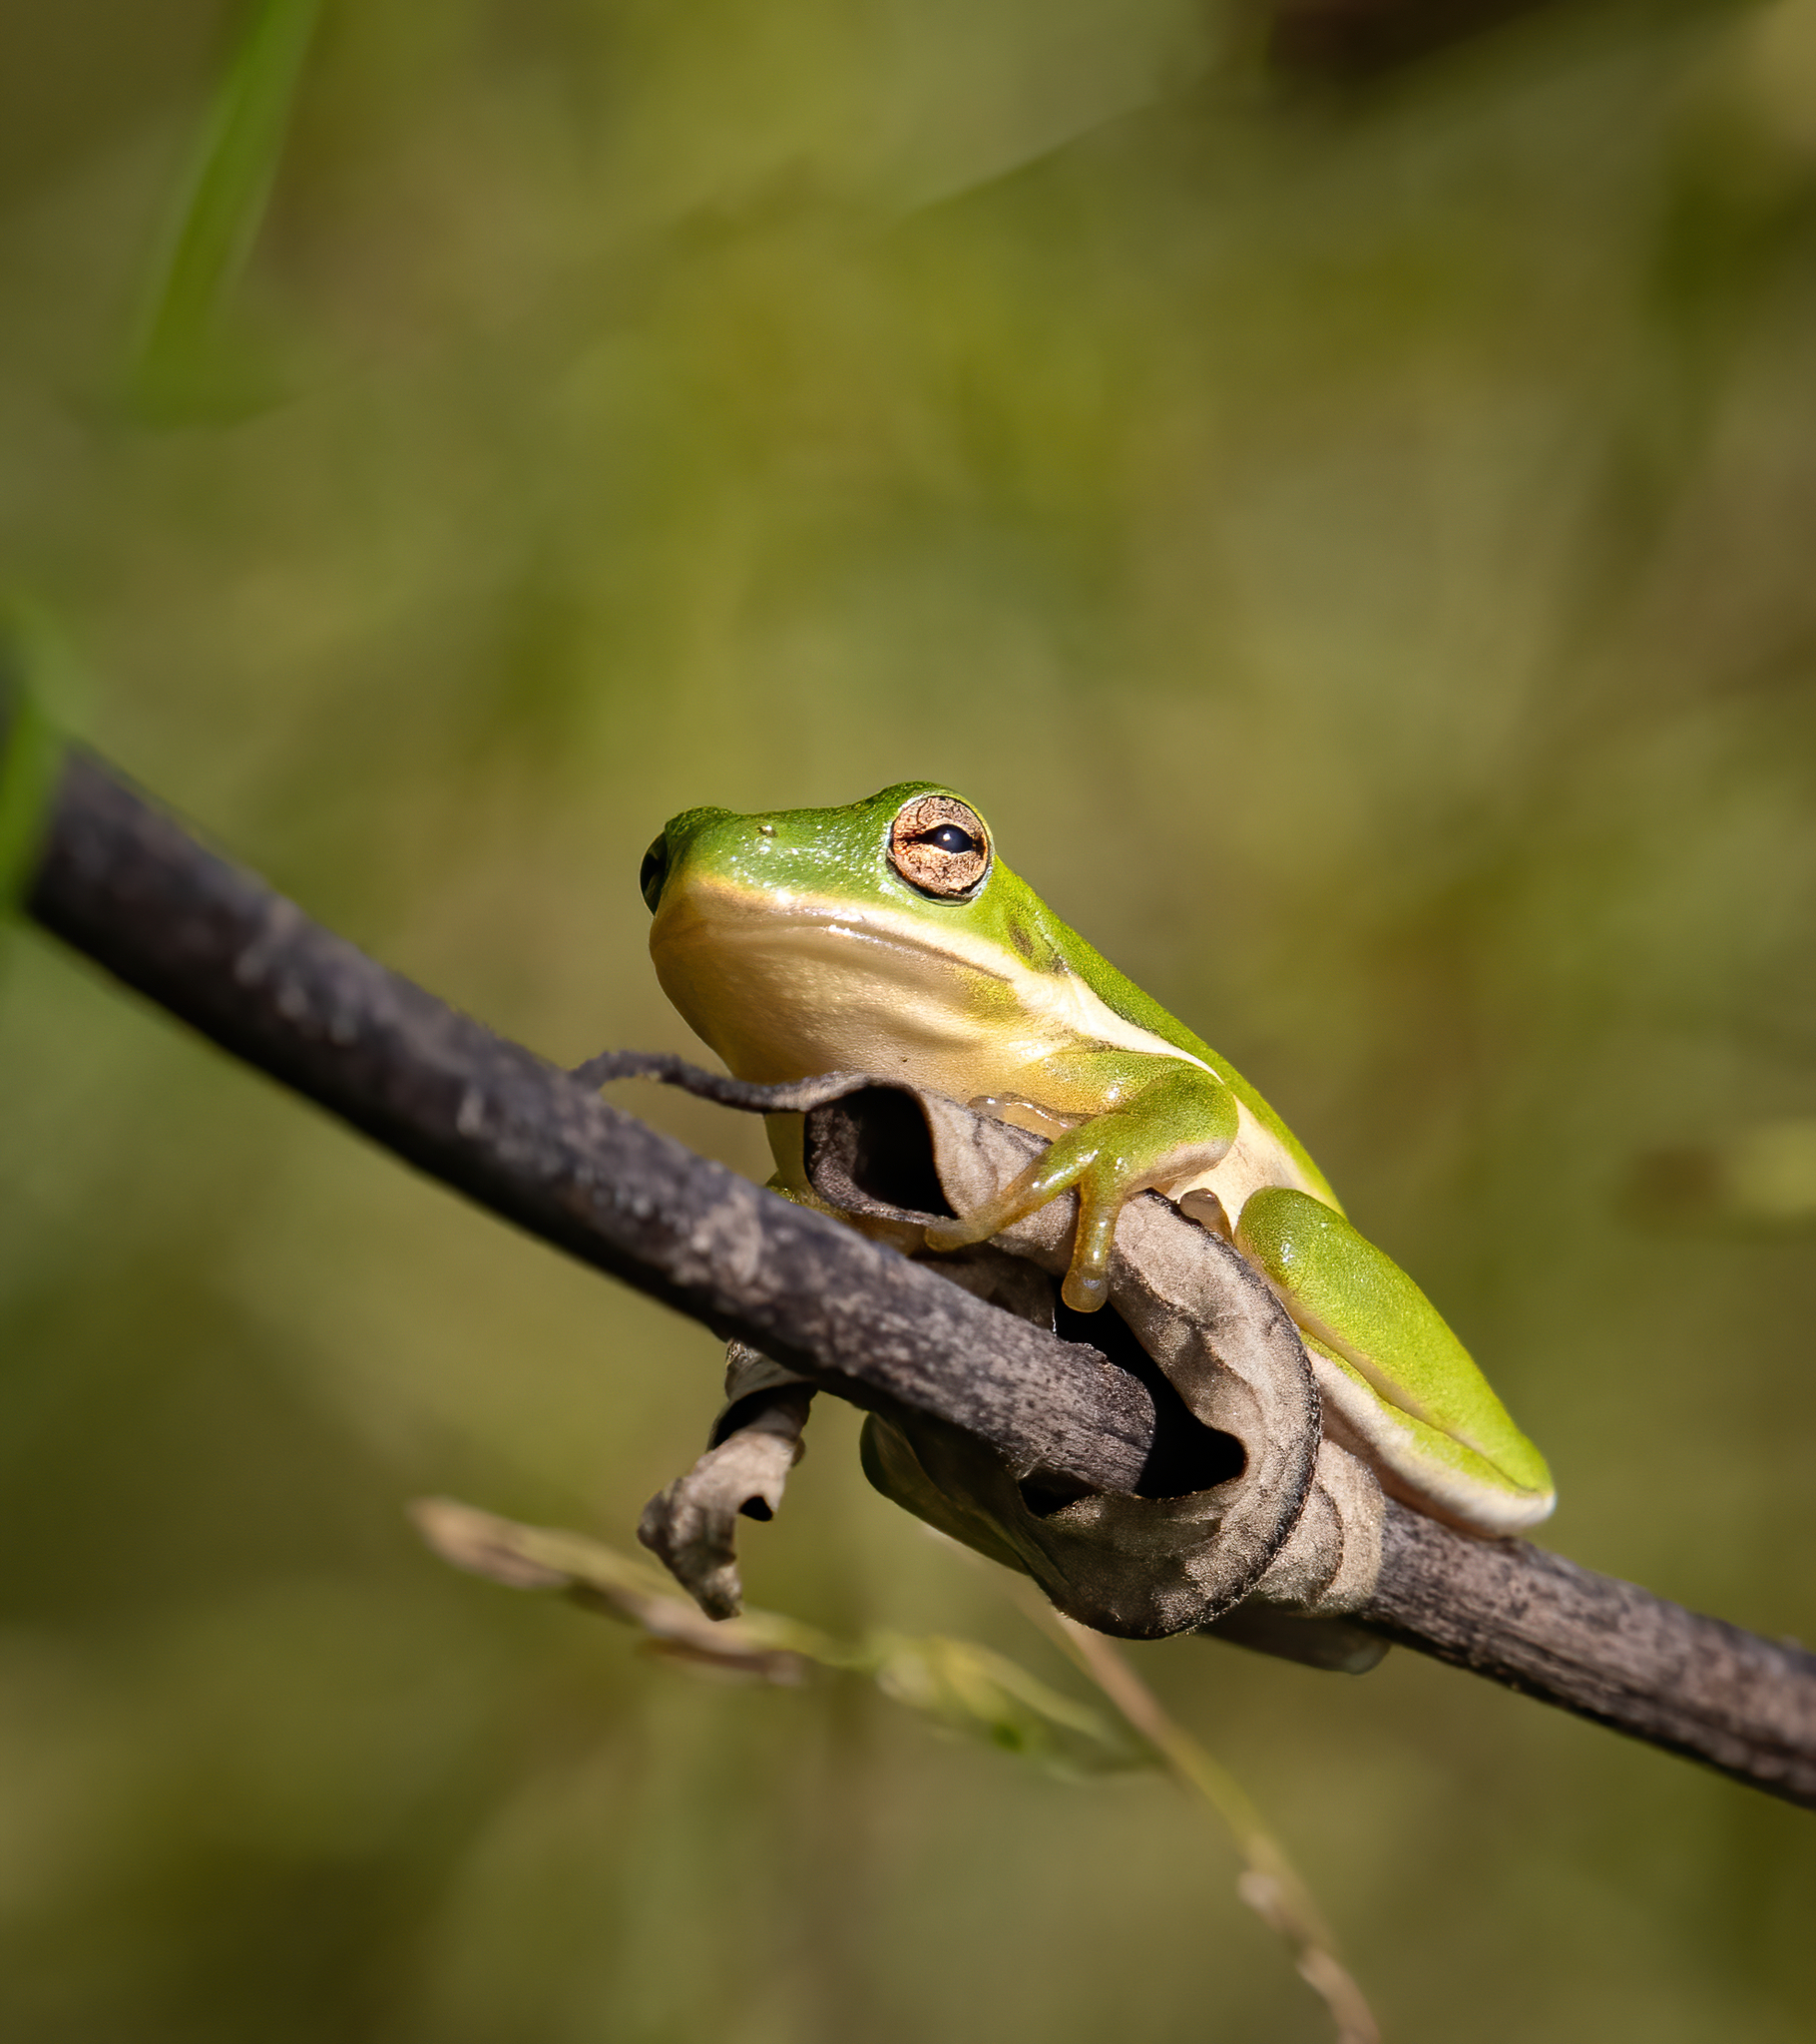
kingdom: Animalia
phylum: Chordata
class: Amphibia
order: Anura
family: Hylidae
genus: Dryophytes
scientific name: Dryophytes cinereus
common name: Green treefrog
